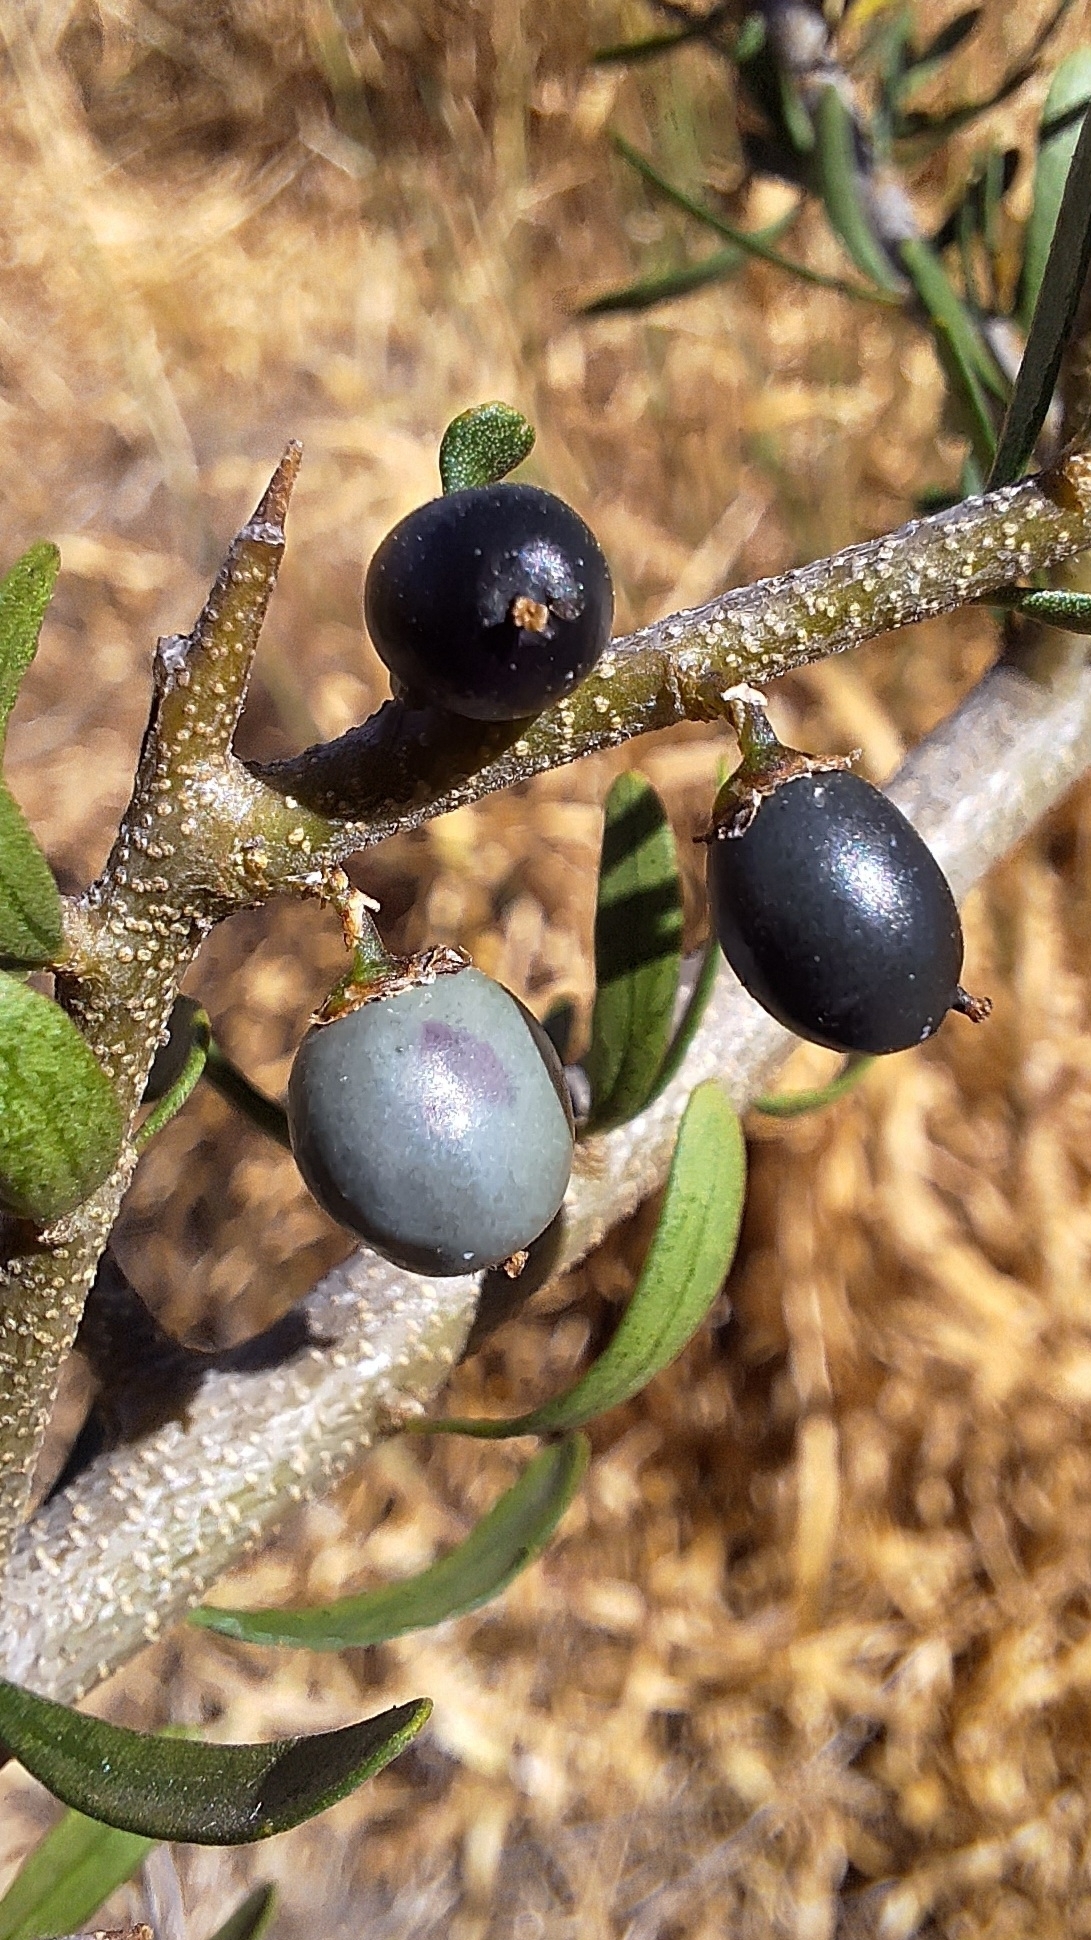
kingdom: Plantae
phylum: Tracheophyta
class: Magnoliopsida
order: Malpighiales
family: Violaceae
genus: Melicytus
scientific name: Melicytus dentatus
